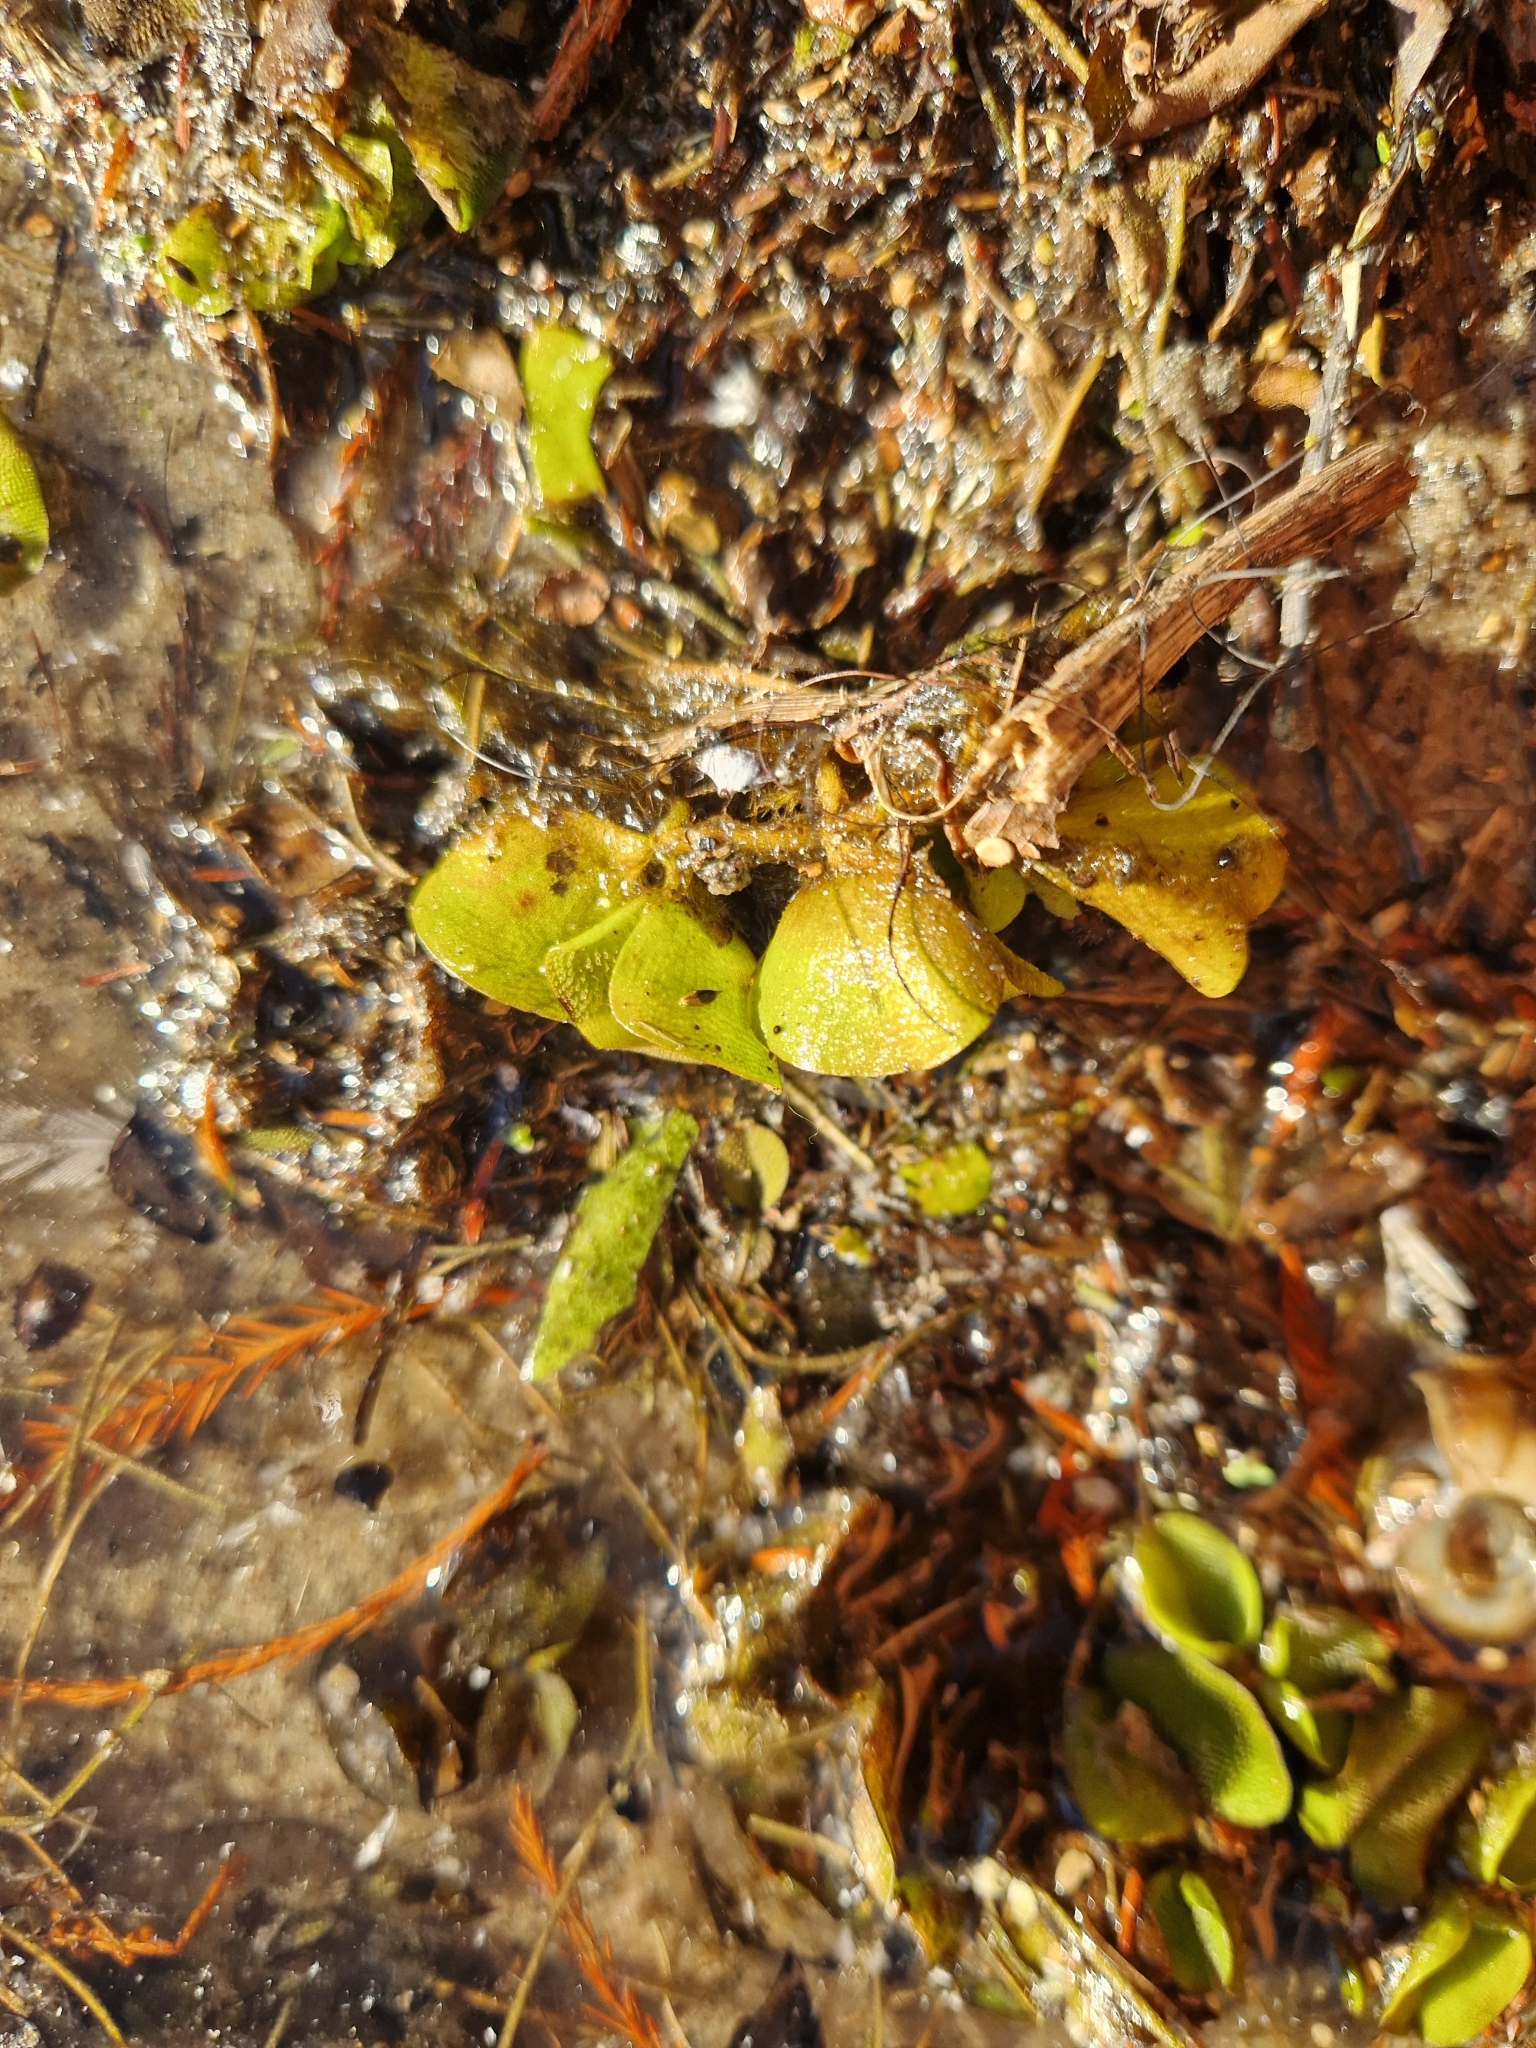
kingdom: Plantae
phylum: Tracheophyta
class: Polypodiopsida
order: Salviniales
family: Salviniaceae
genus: Salvinia
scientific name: Salvinia molesta
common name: Kariba weed
